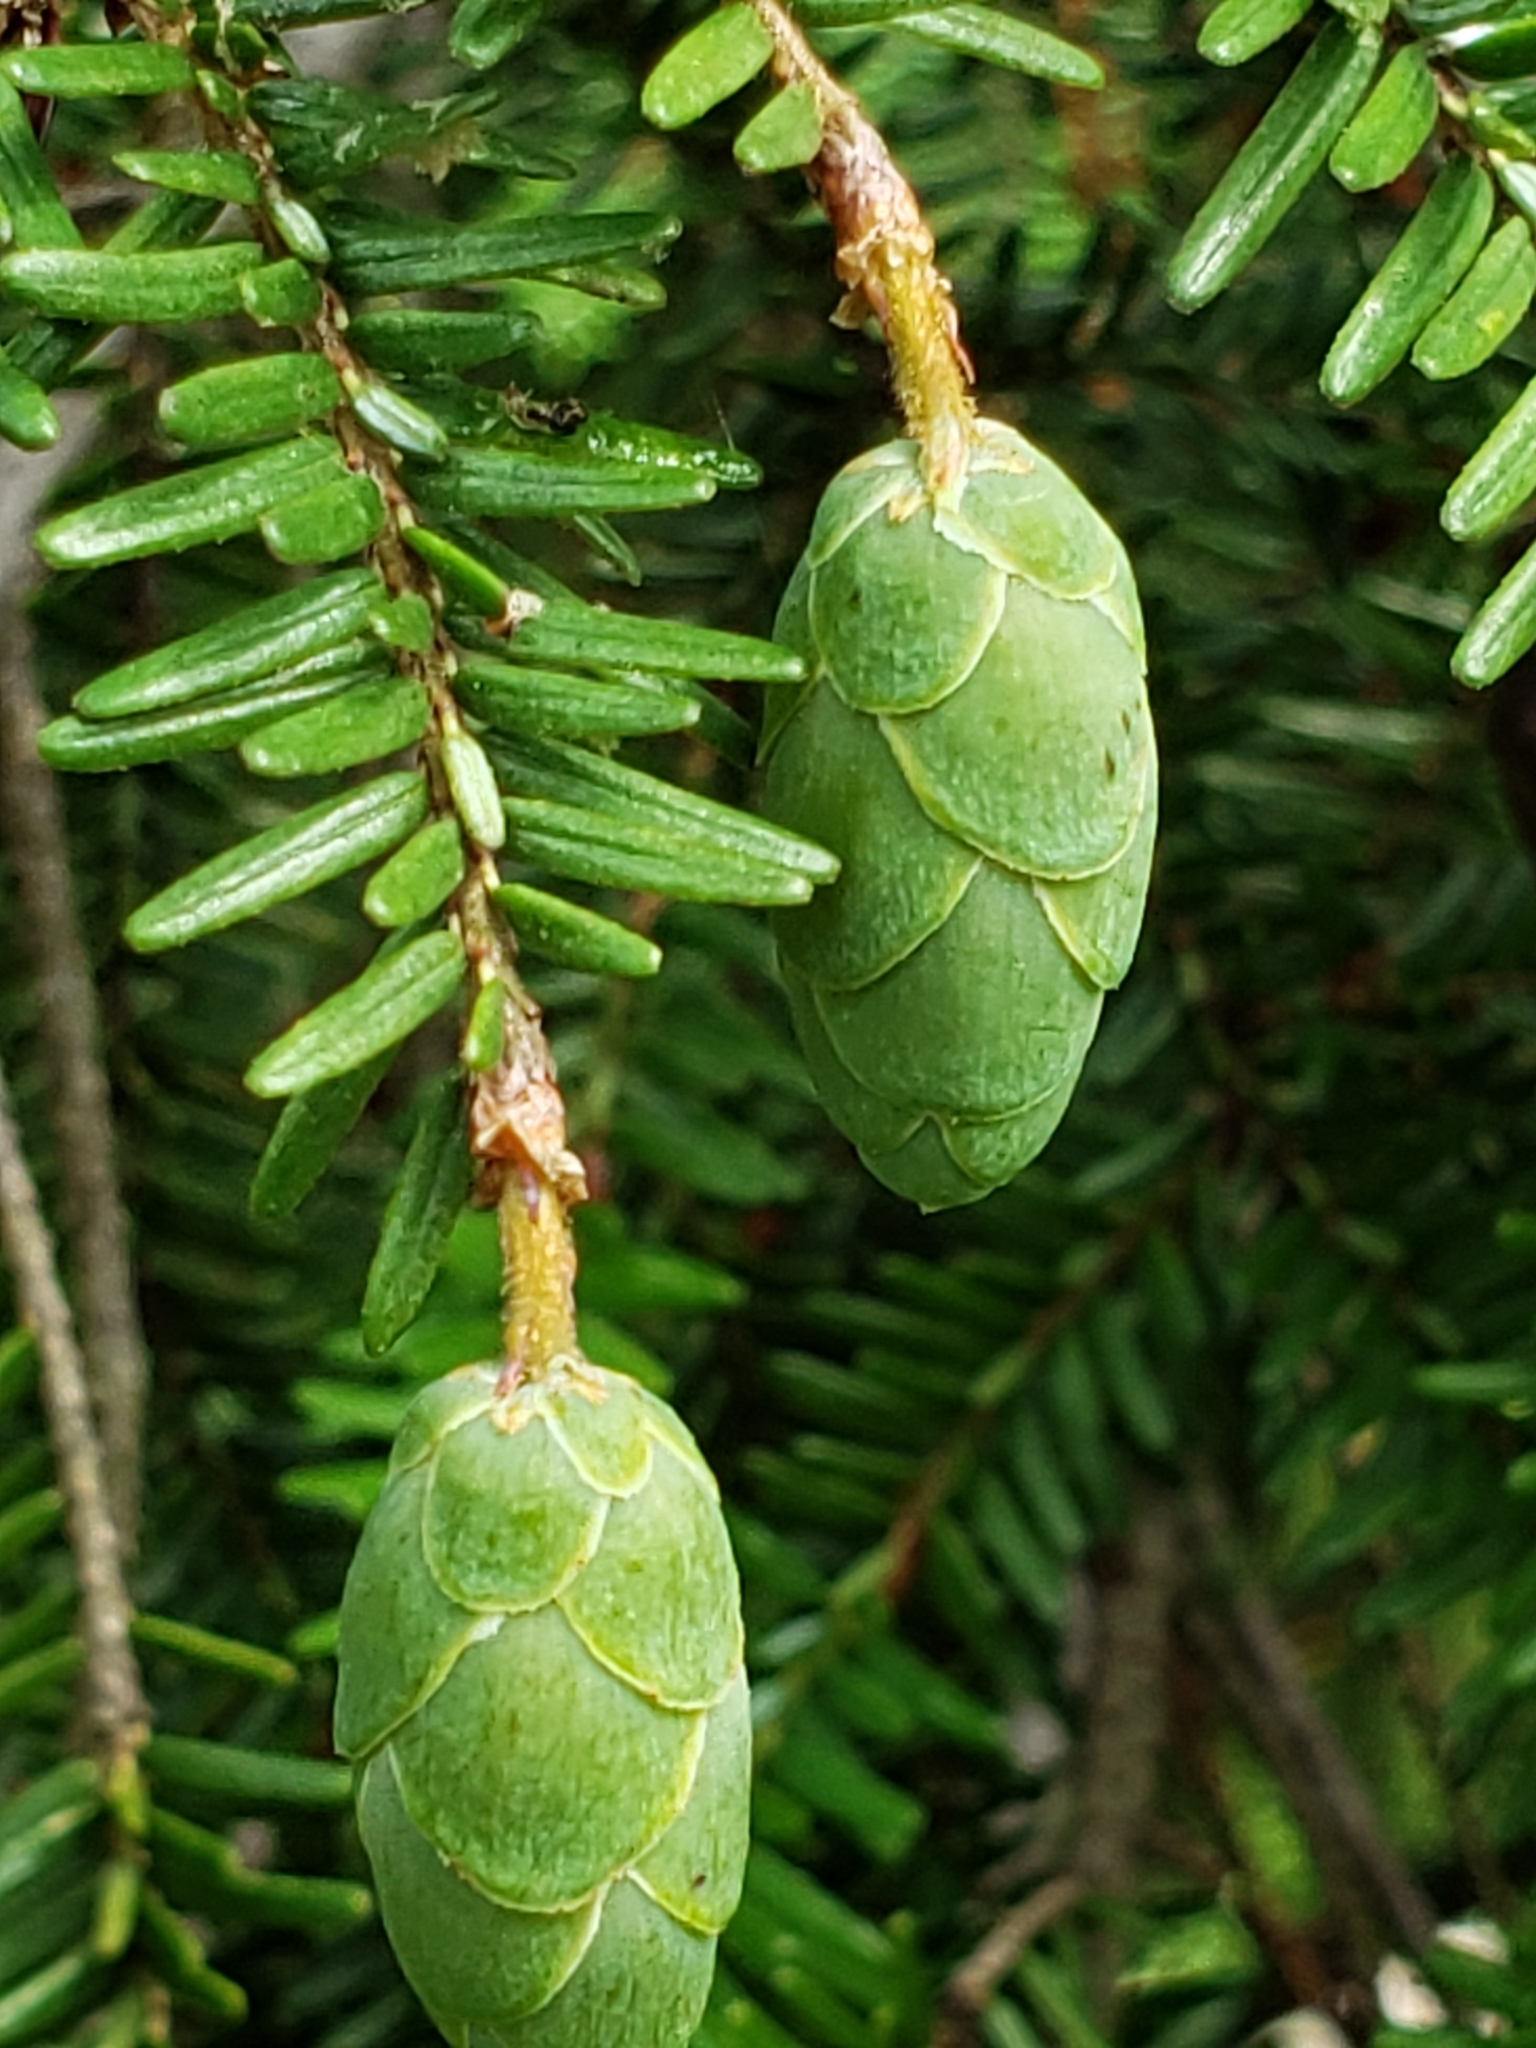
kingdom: Animalia
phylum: Arthropoda
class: Insecta
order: Hemiptera
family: Adelgidae
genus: Adelges
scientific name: Adelges tsugae
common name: Hemlock woolly adelgid
